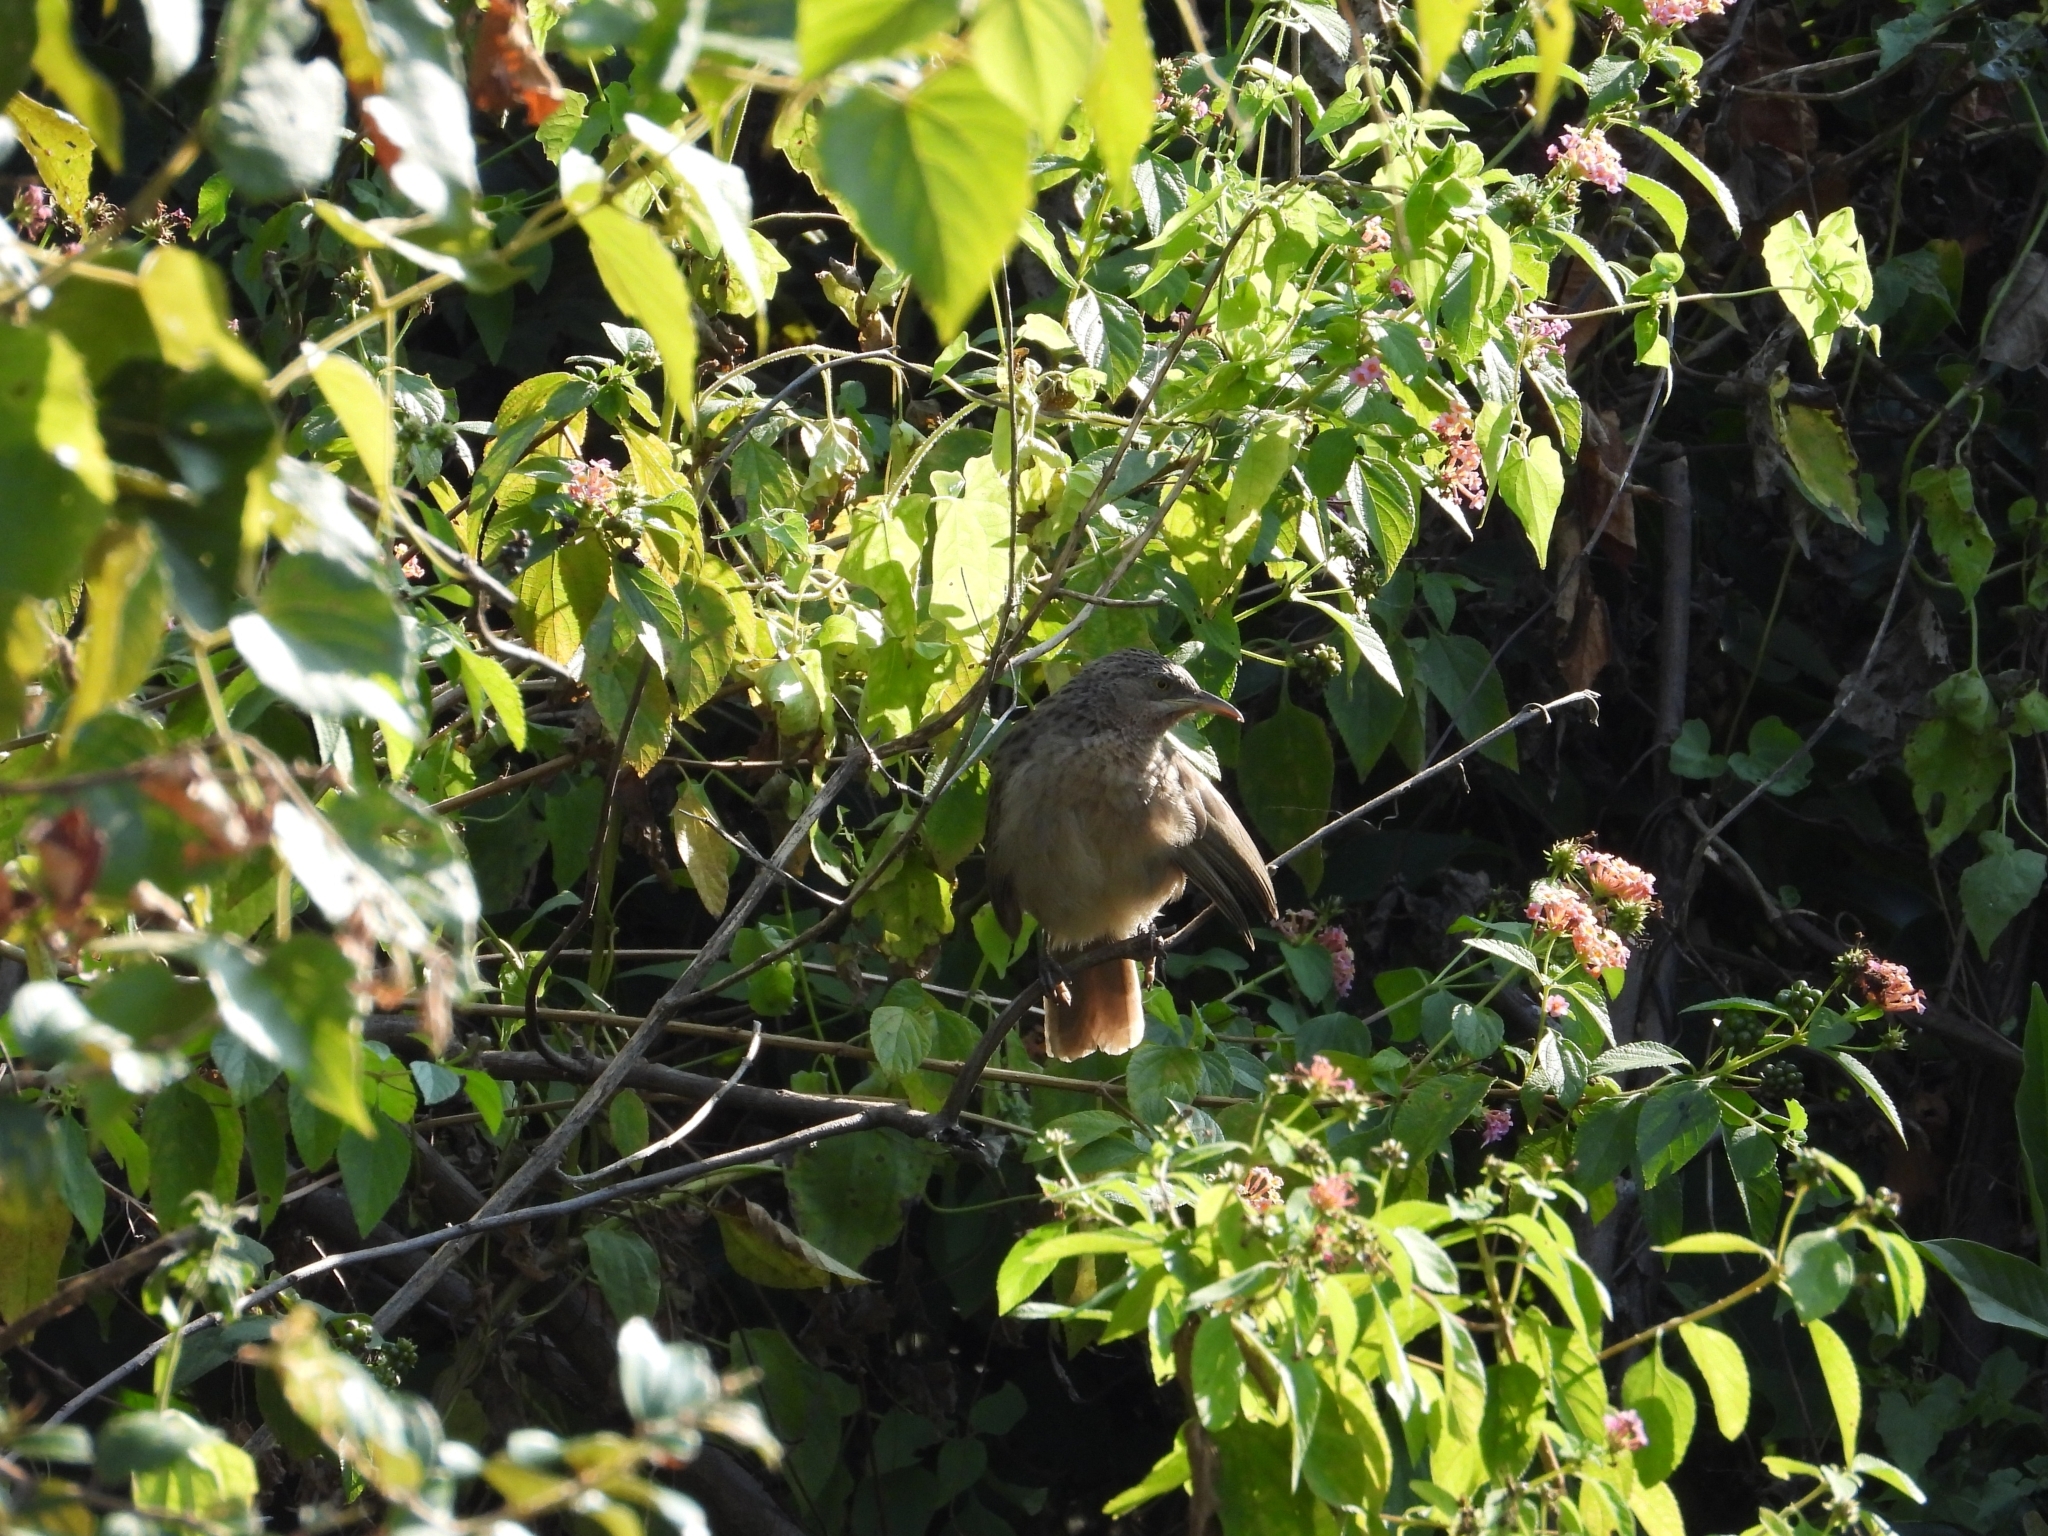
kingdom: Animalia
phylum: Chordata
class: Aves
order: Passeriformes
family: Leiothrichidae
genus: Turdoides
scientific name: Turdoides earlei
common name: Striated babbler
